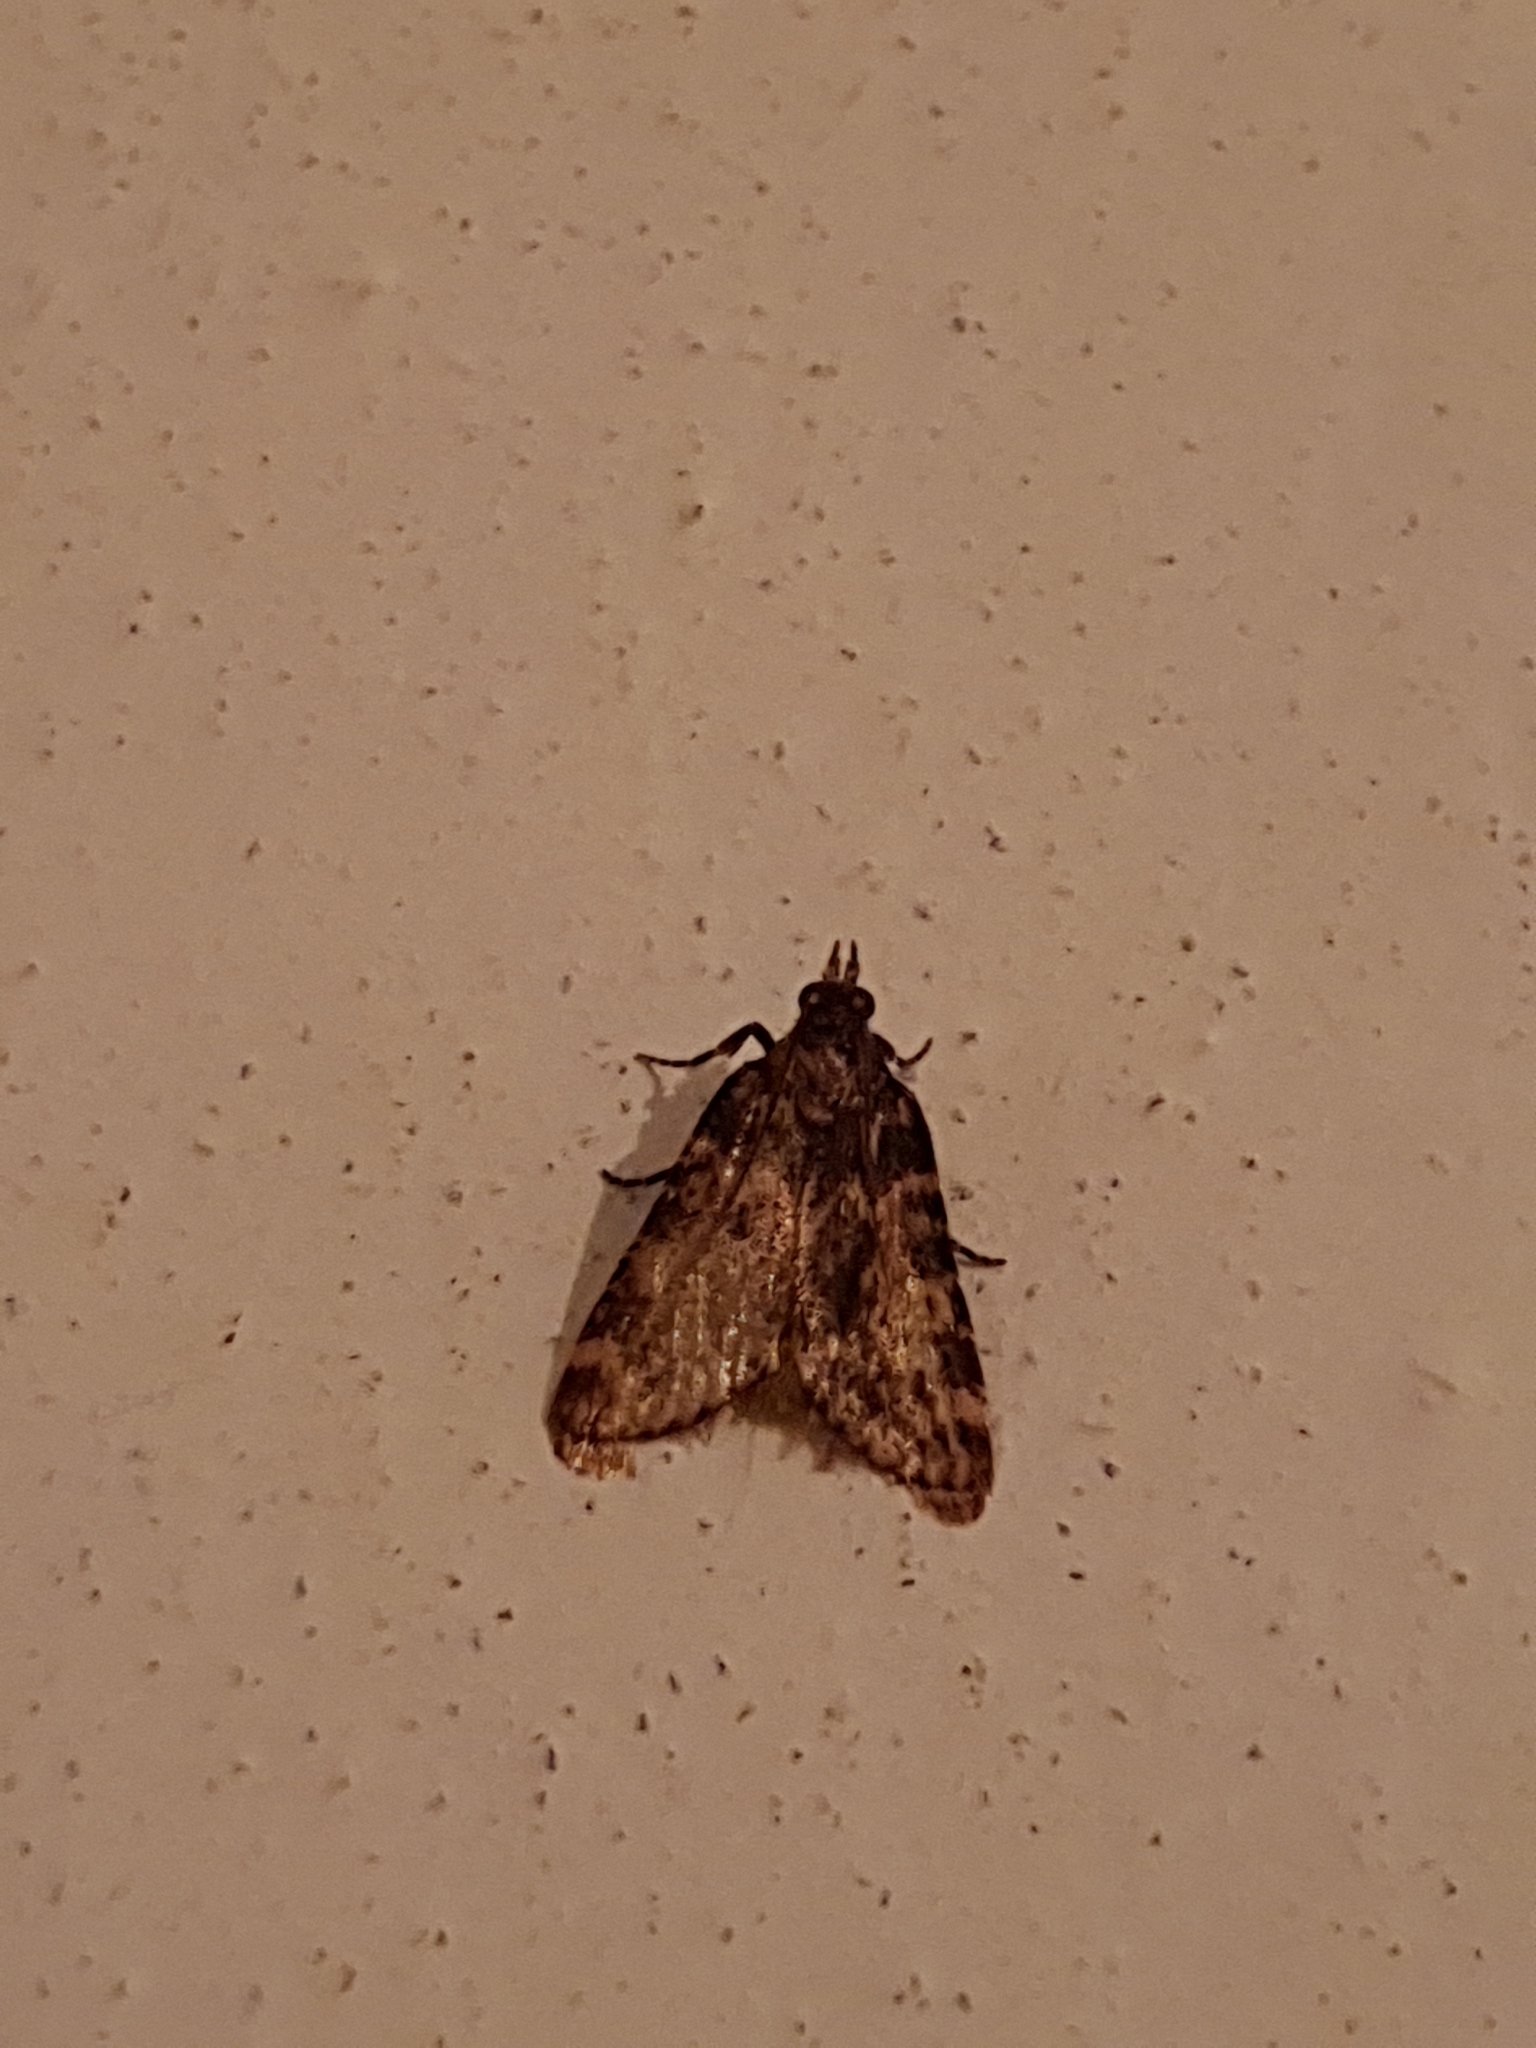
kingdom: Animalia
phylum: Arthropoda
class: Insecta
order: Lepidoptera
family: Pyralidae
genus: Aglossa
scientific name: Aglossa caprealis
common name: Small tabby
